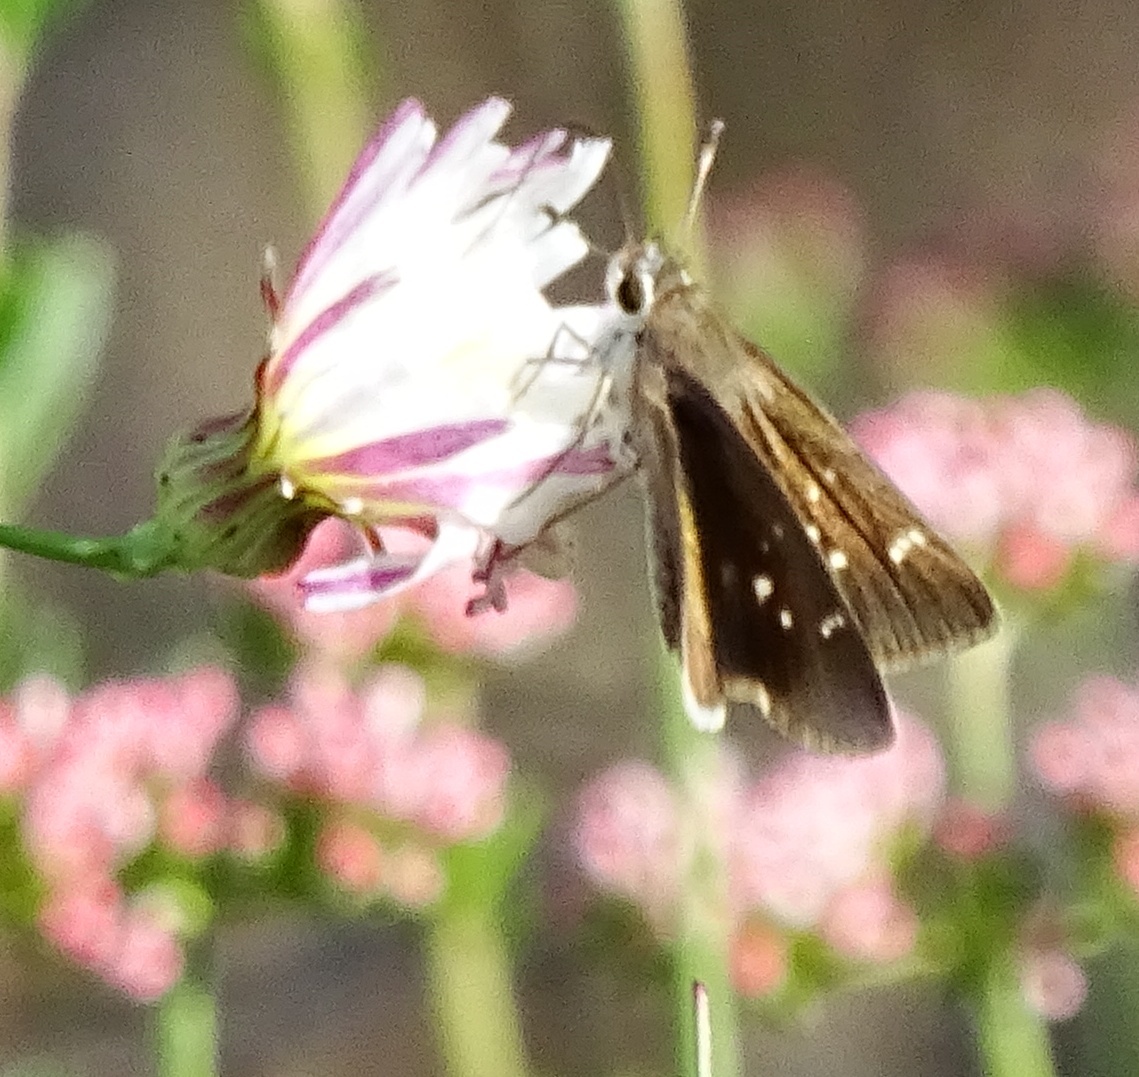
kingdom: Animalia
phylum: Arthropoda
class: Insecta
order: Lepidoptera
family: Hesperiidae
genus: Lerodea
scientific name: Lerodea eufala
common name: Eufala skipper
